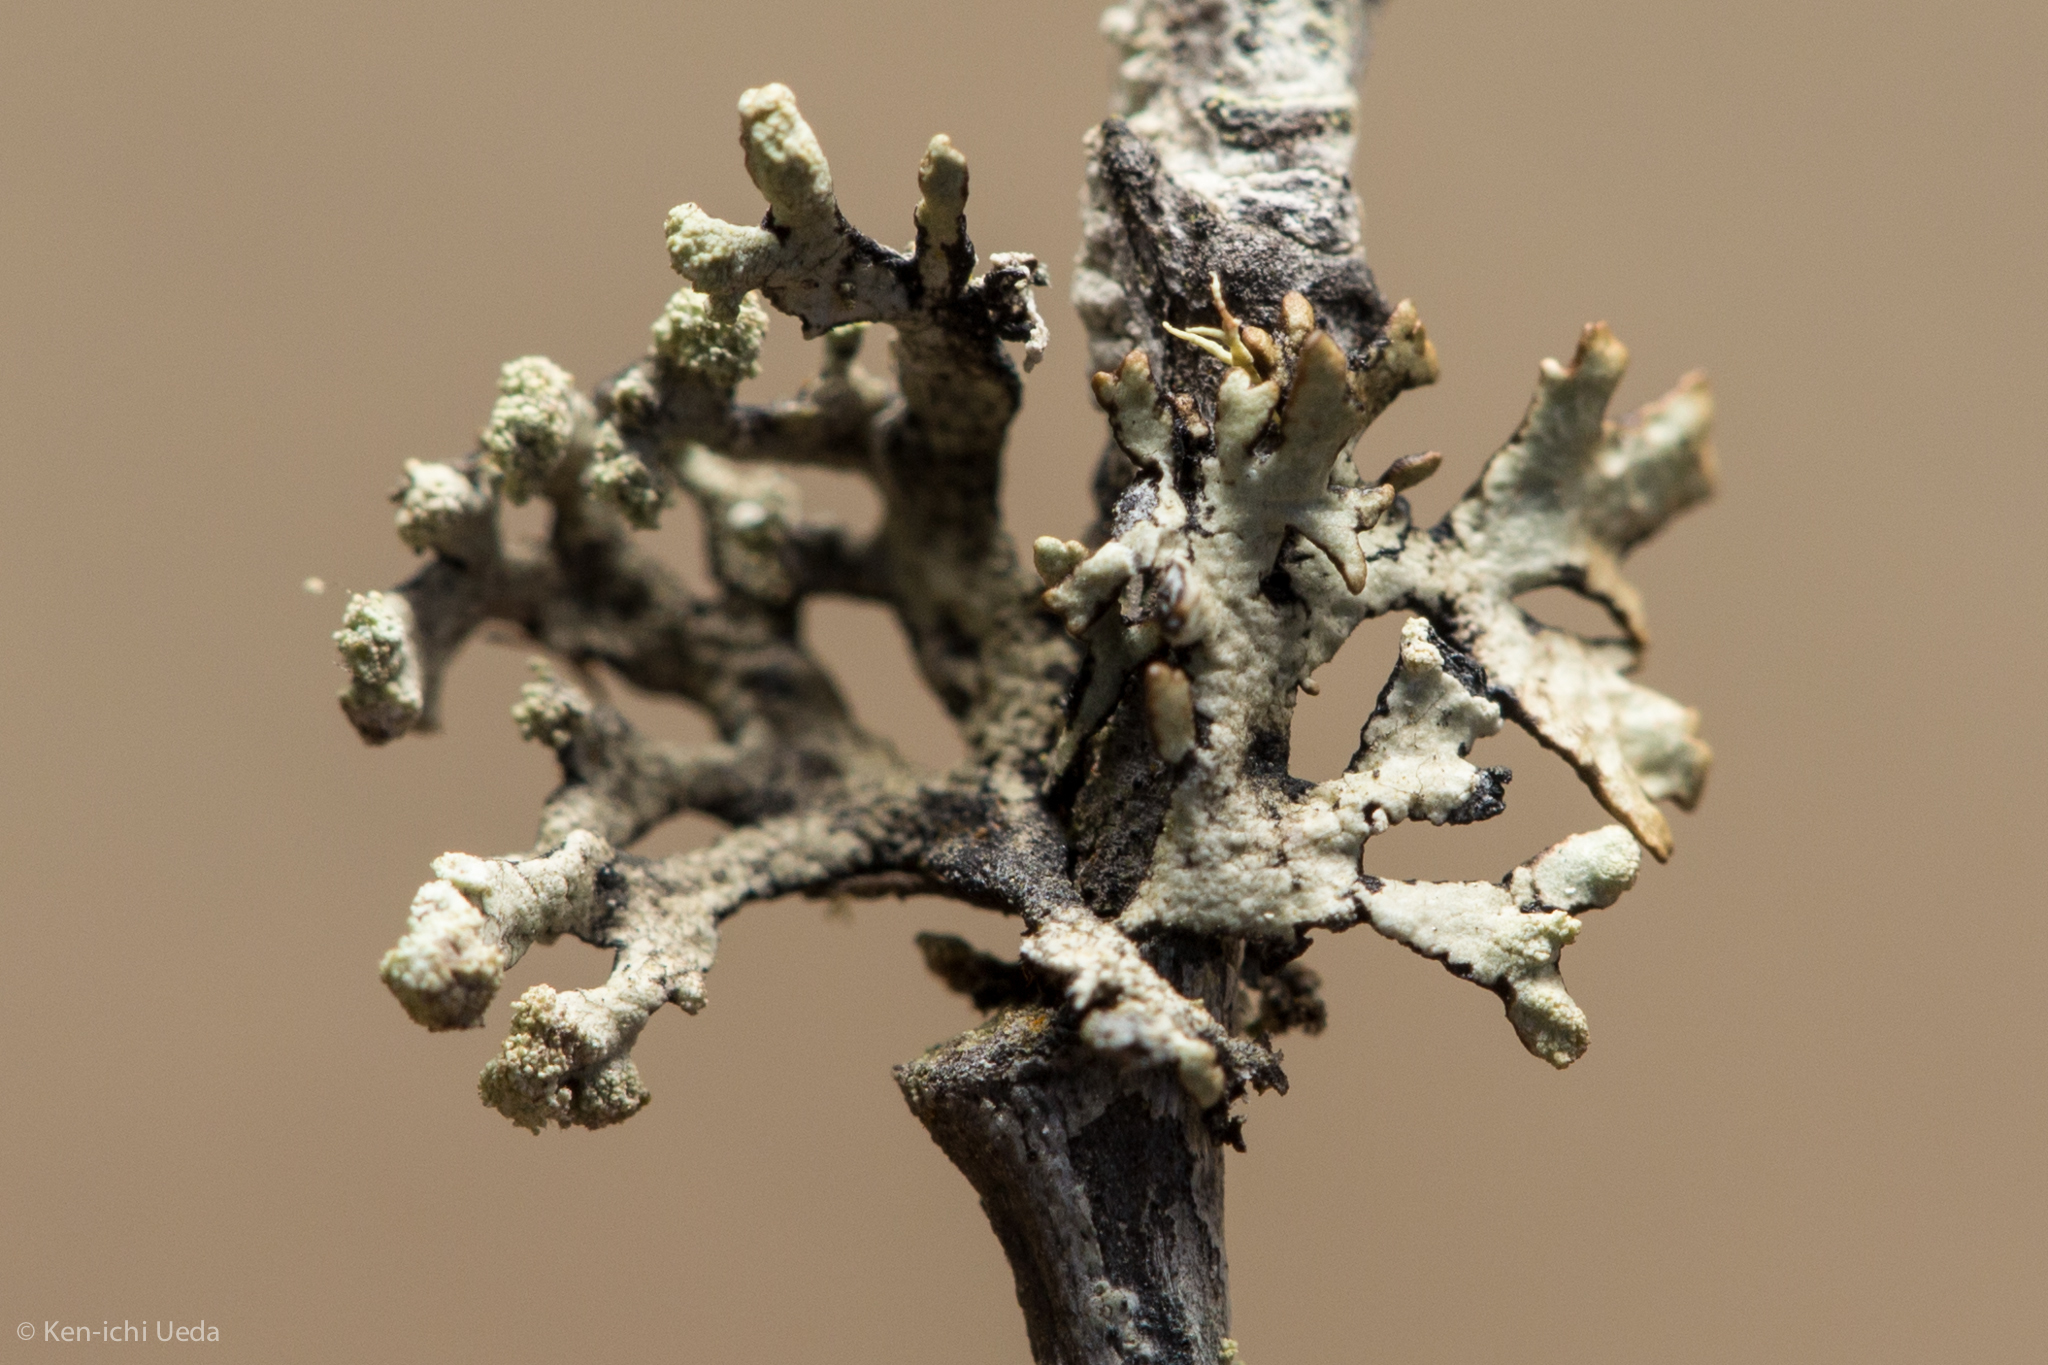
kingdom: Fungi
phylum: Ascomycota
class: Lecanoromycetes
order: Lecanorales
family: Parmeliaceae
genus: Hypogymnia
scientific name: Hypogymnia hultenii
